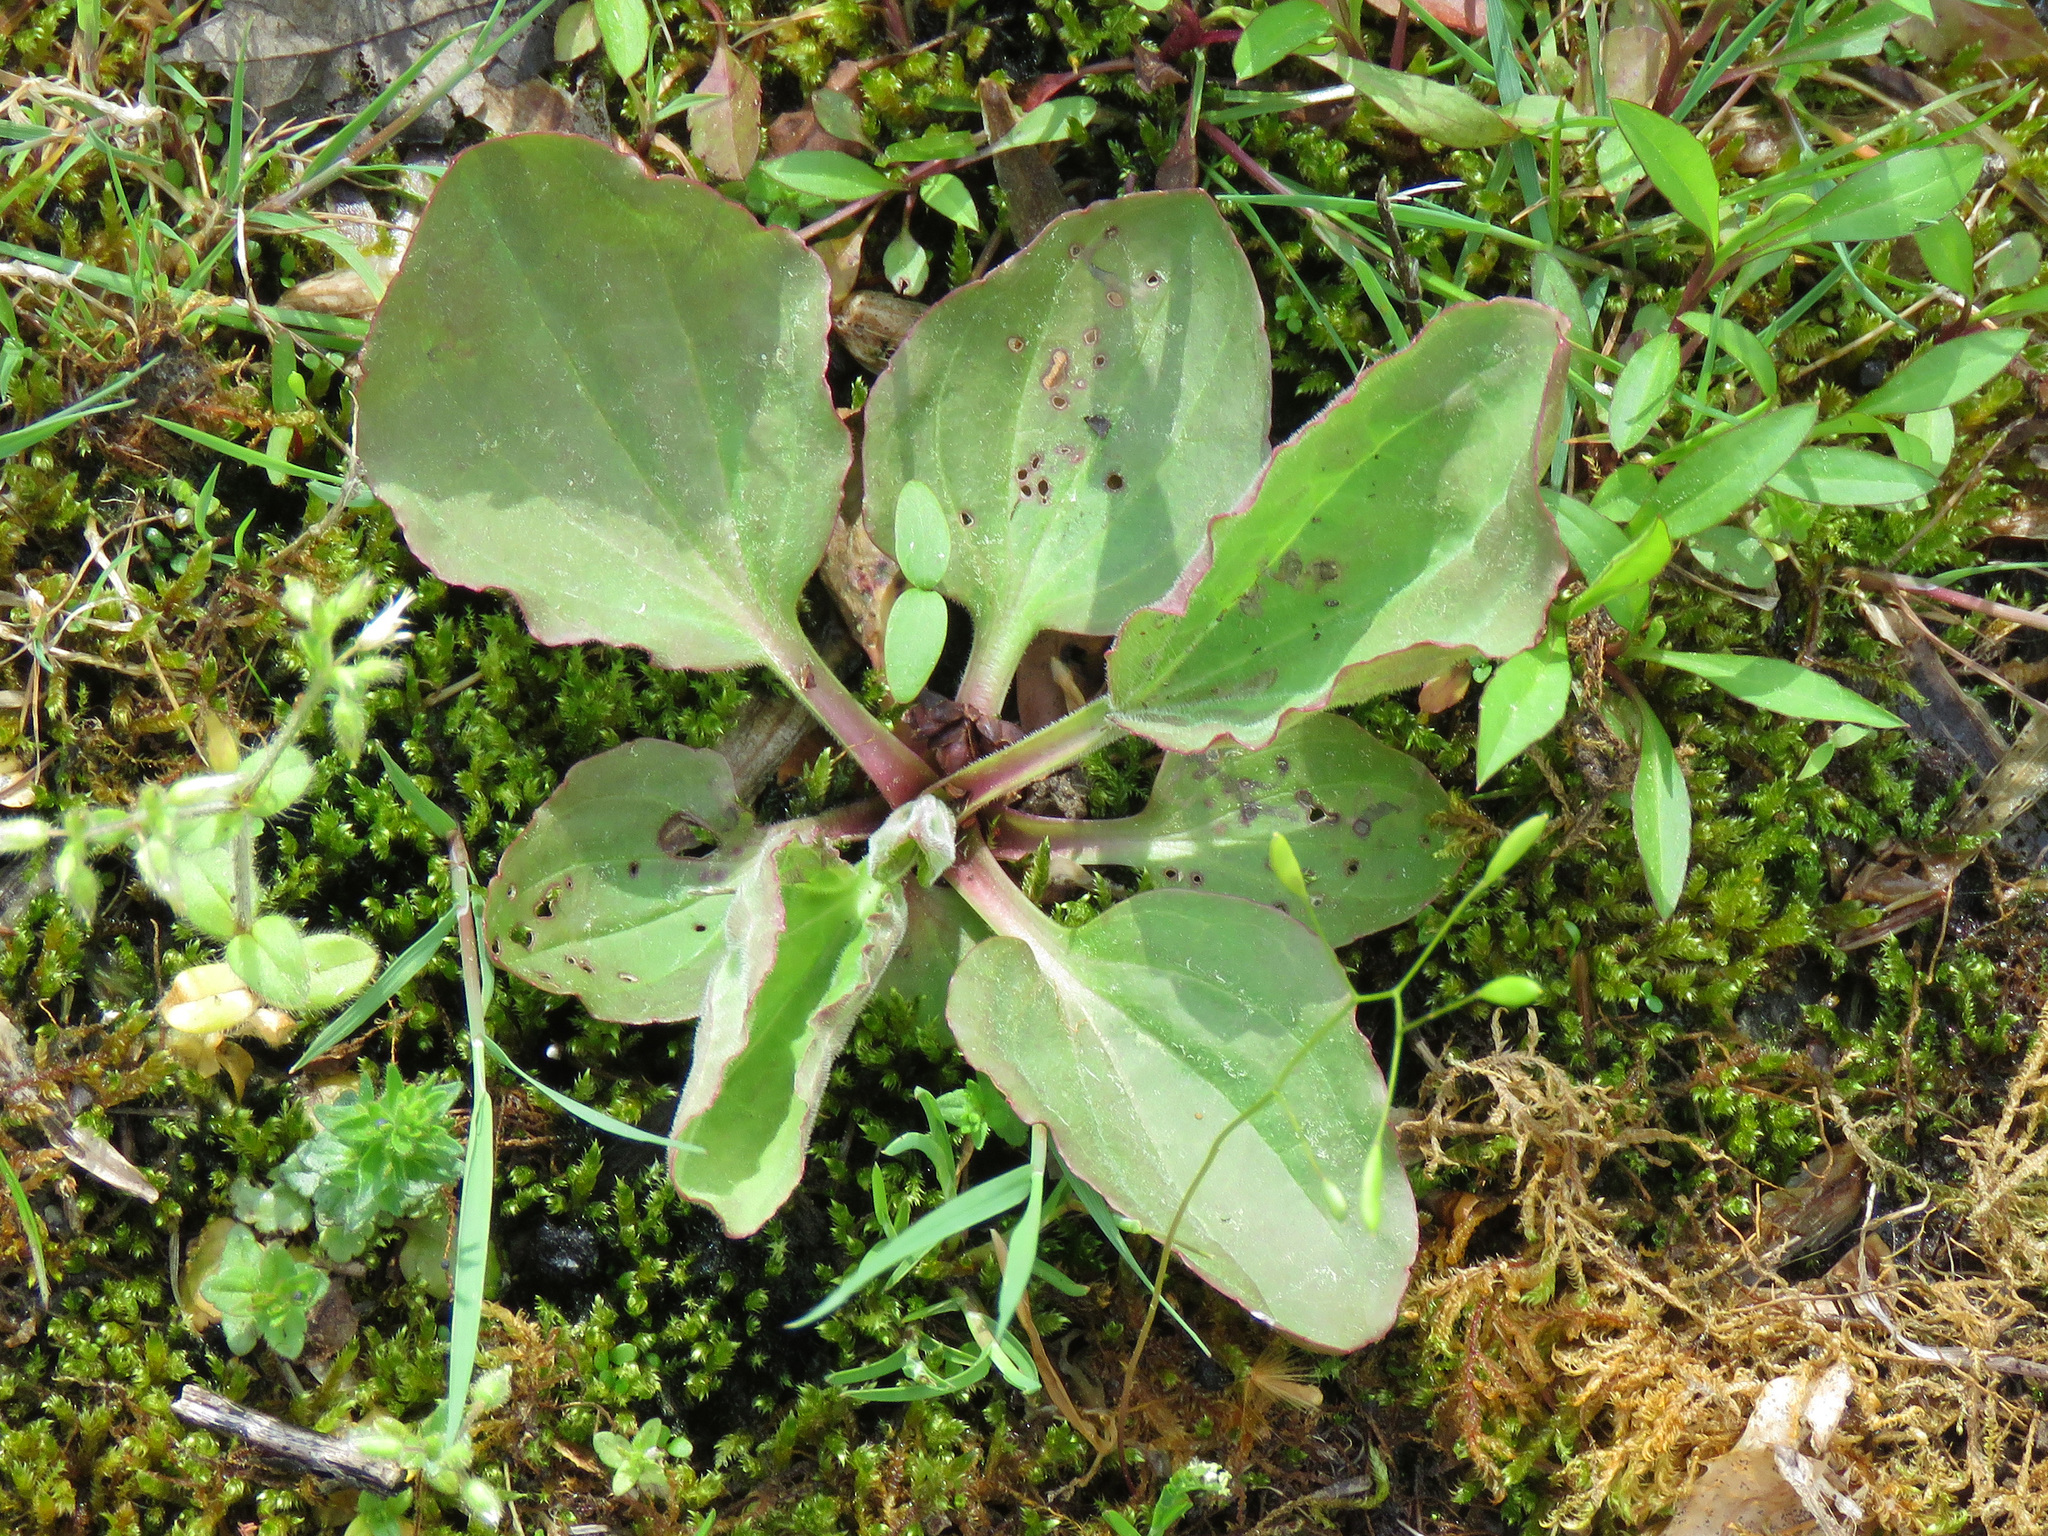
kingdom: Plantae
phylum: Tracheophyta
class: Magnoliopsida
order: Lamiales
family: Plantaginaceae
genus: Plantago
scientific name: Plantago rugelii
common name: American plantain
